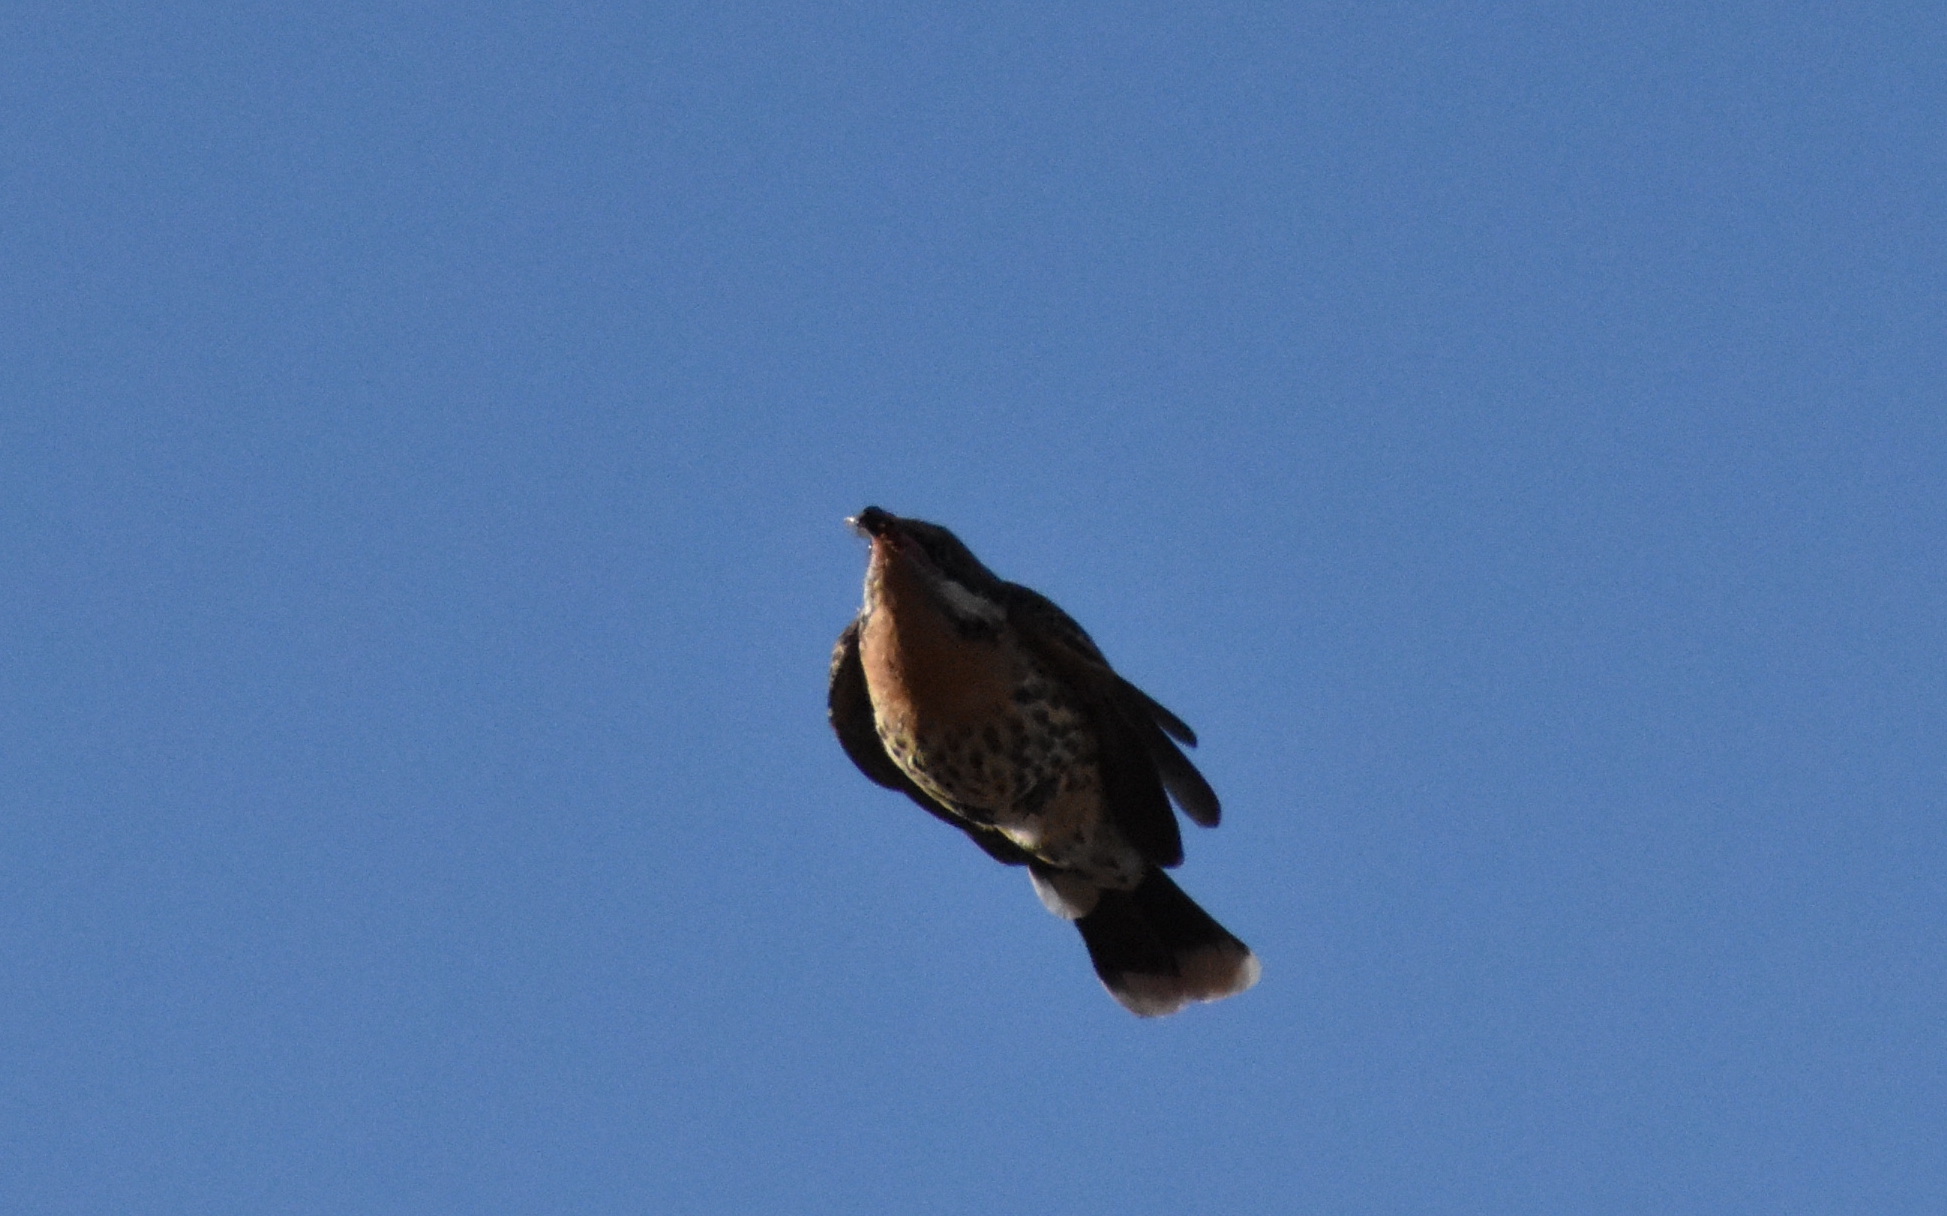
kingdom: Animalia
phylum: Chordata
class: Aves
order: Passeriformes
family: Meliphagidae
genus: Acanthagenys
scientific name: Acanthagenys rufogularis
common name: Spiny-cheeked honeyeater
